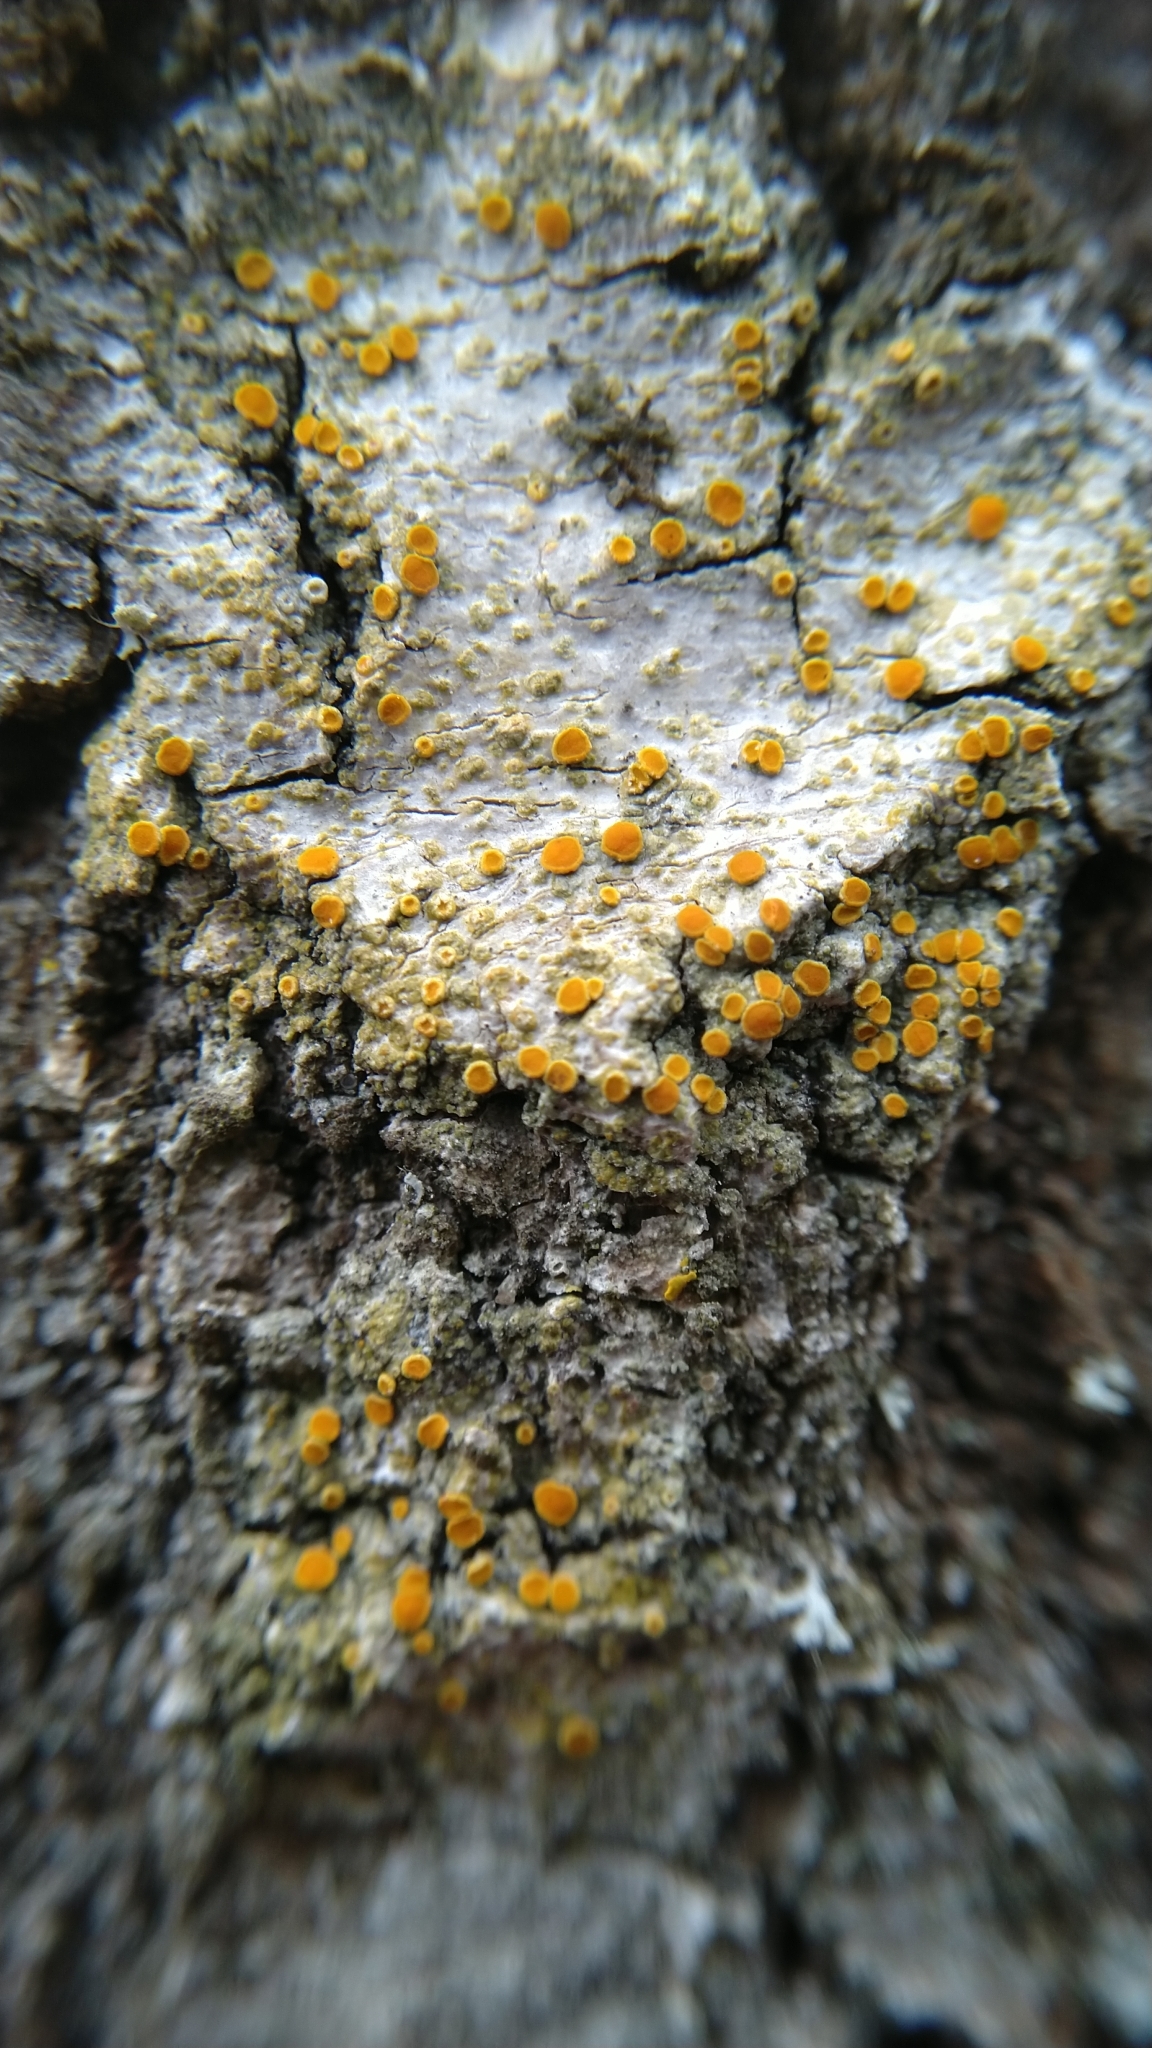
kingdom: Fungi
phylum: Ascomycota
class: Lecanoromycetes
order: Teloschistales
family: Teloschistaceae
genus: Opeltia
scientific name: Opeltia flavorubescens
